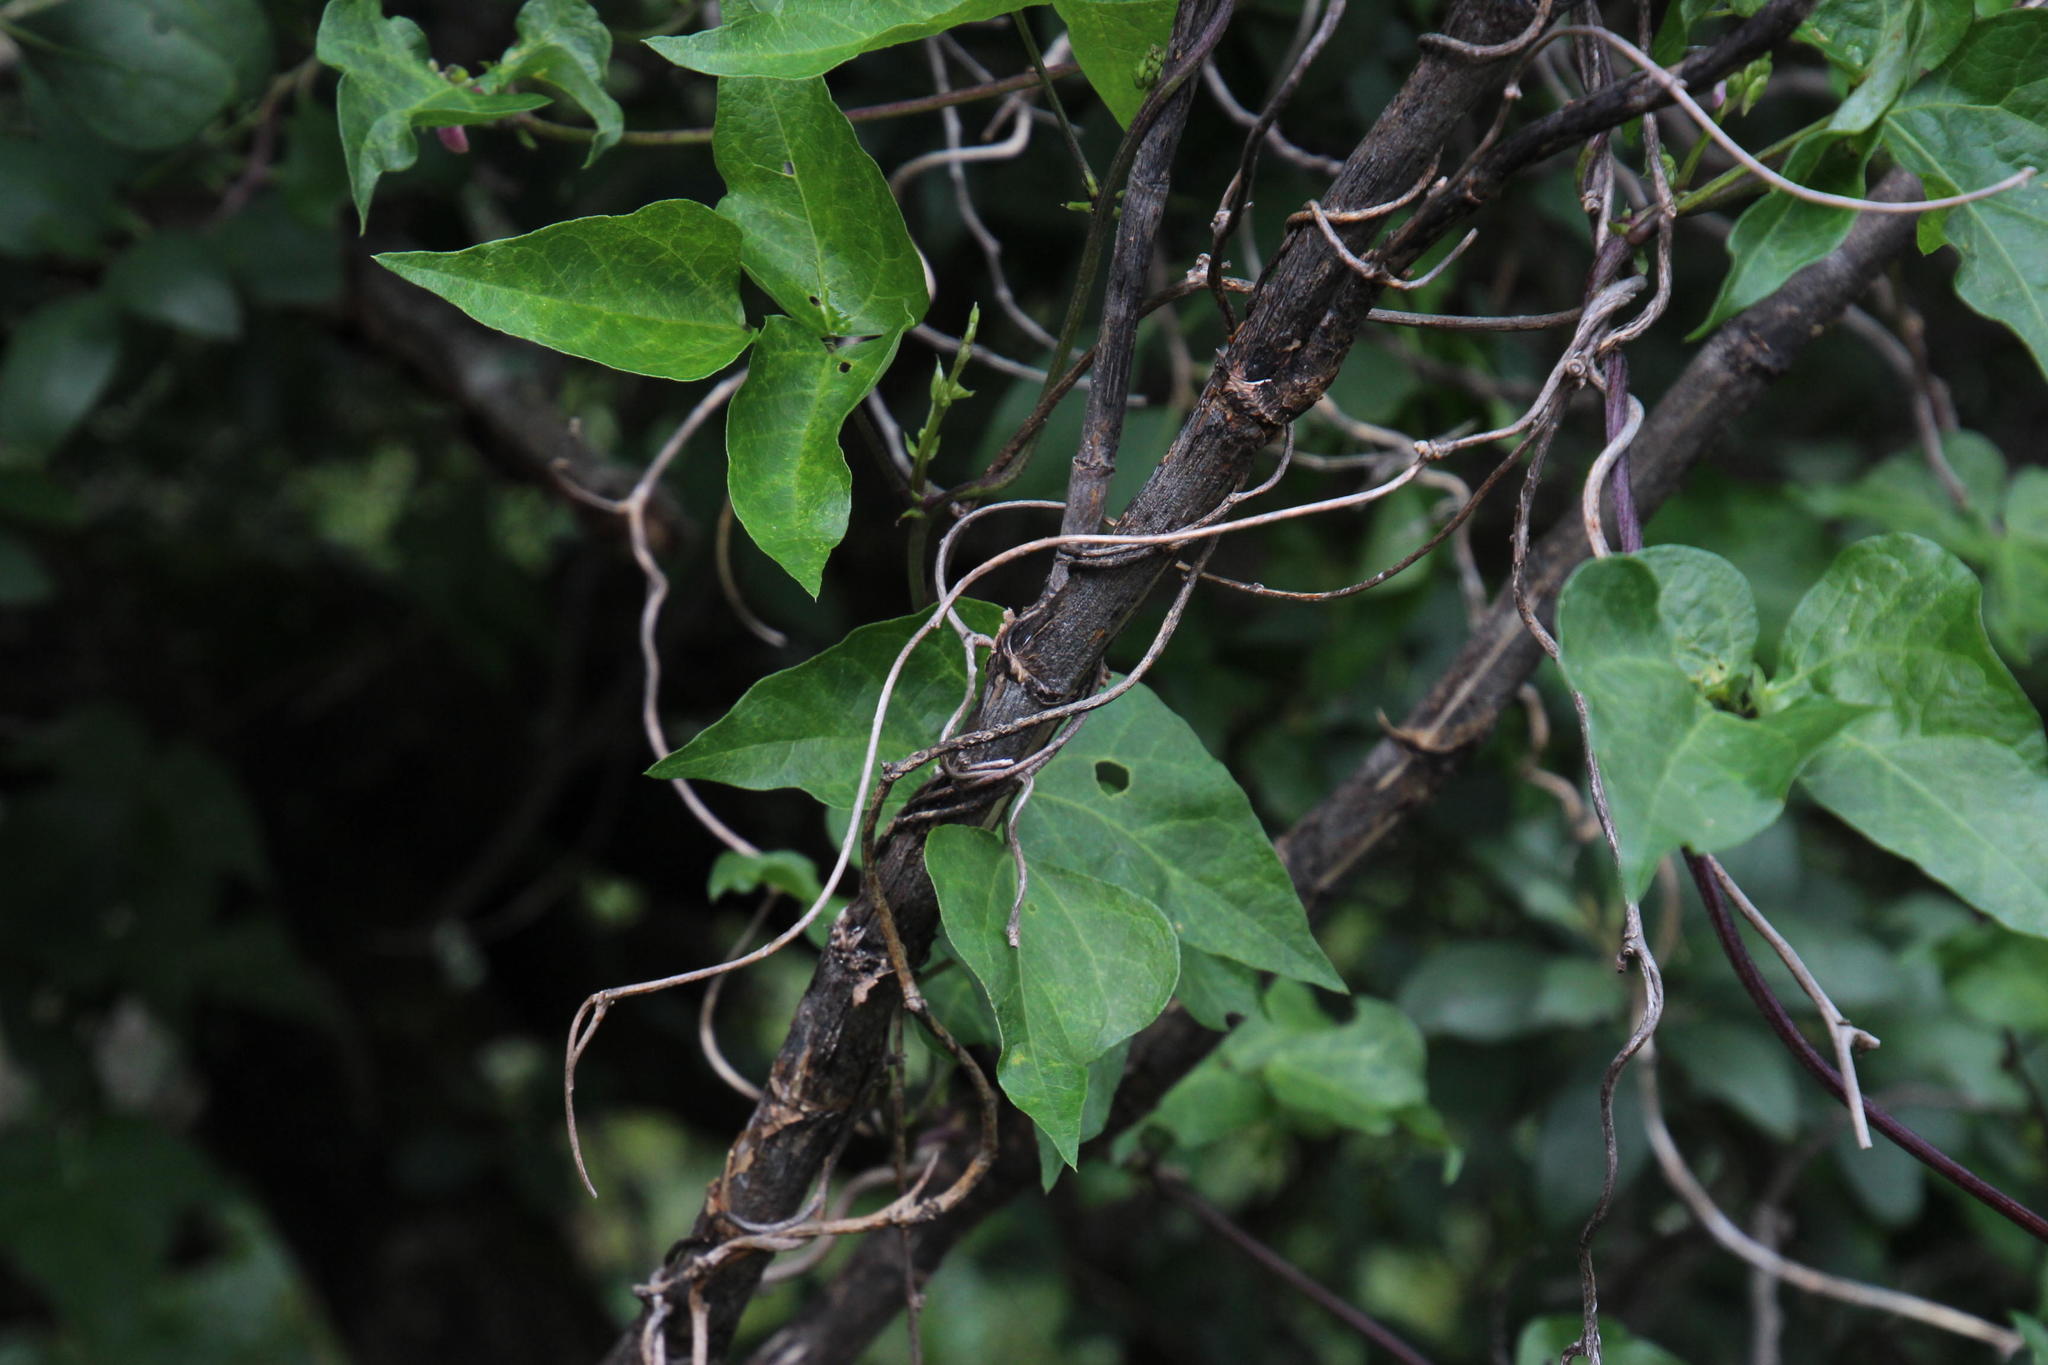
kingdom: Plantae
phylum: Tracheophyta
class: Magnoliopsida
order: Fabales
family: Fabaceae
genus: Dipogon
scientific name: Dipogon lignosus
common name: Okie bean
